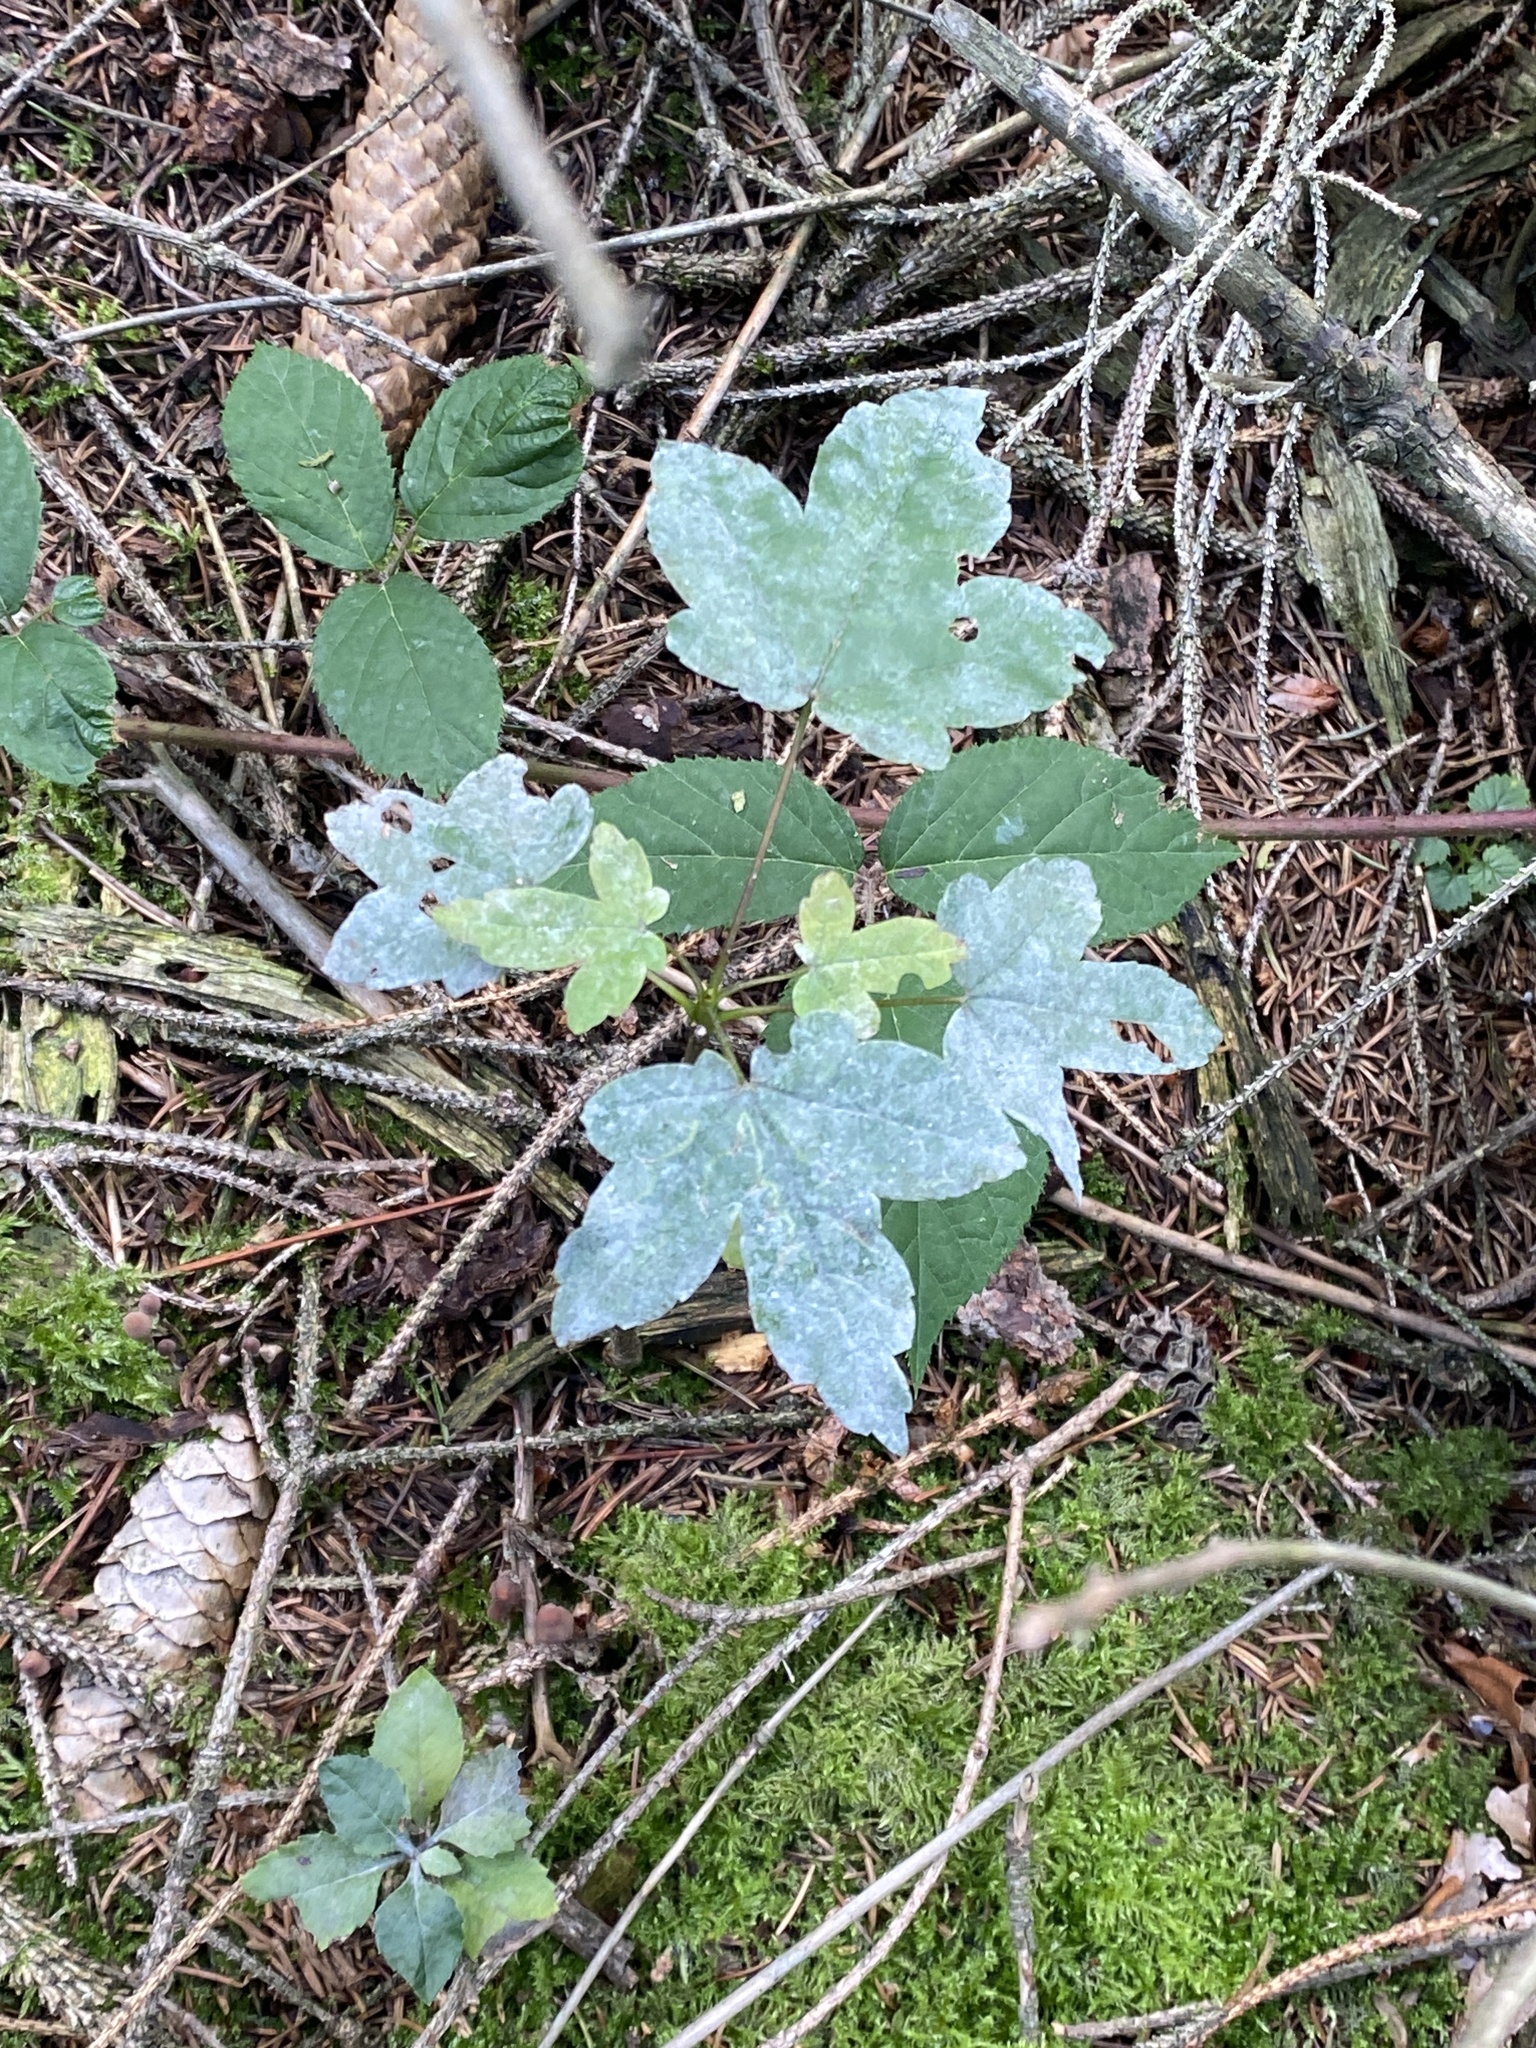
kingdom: Plantae
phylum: Tracheophyta
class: Magnoliopsida
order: Sapindales
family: Sapindaceae
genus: Acer
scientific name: Acer pseudoplatanus
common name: Sycamore
